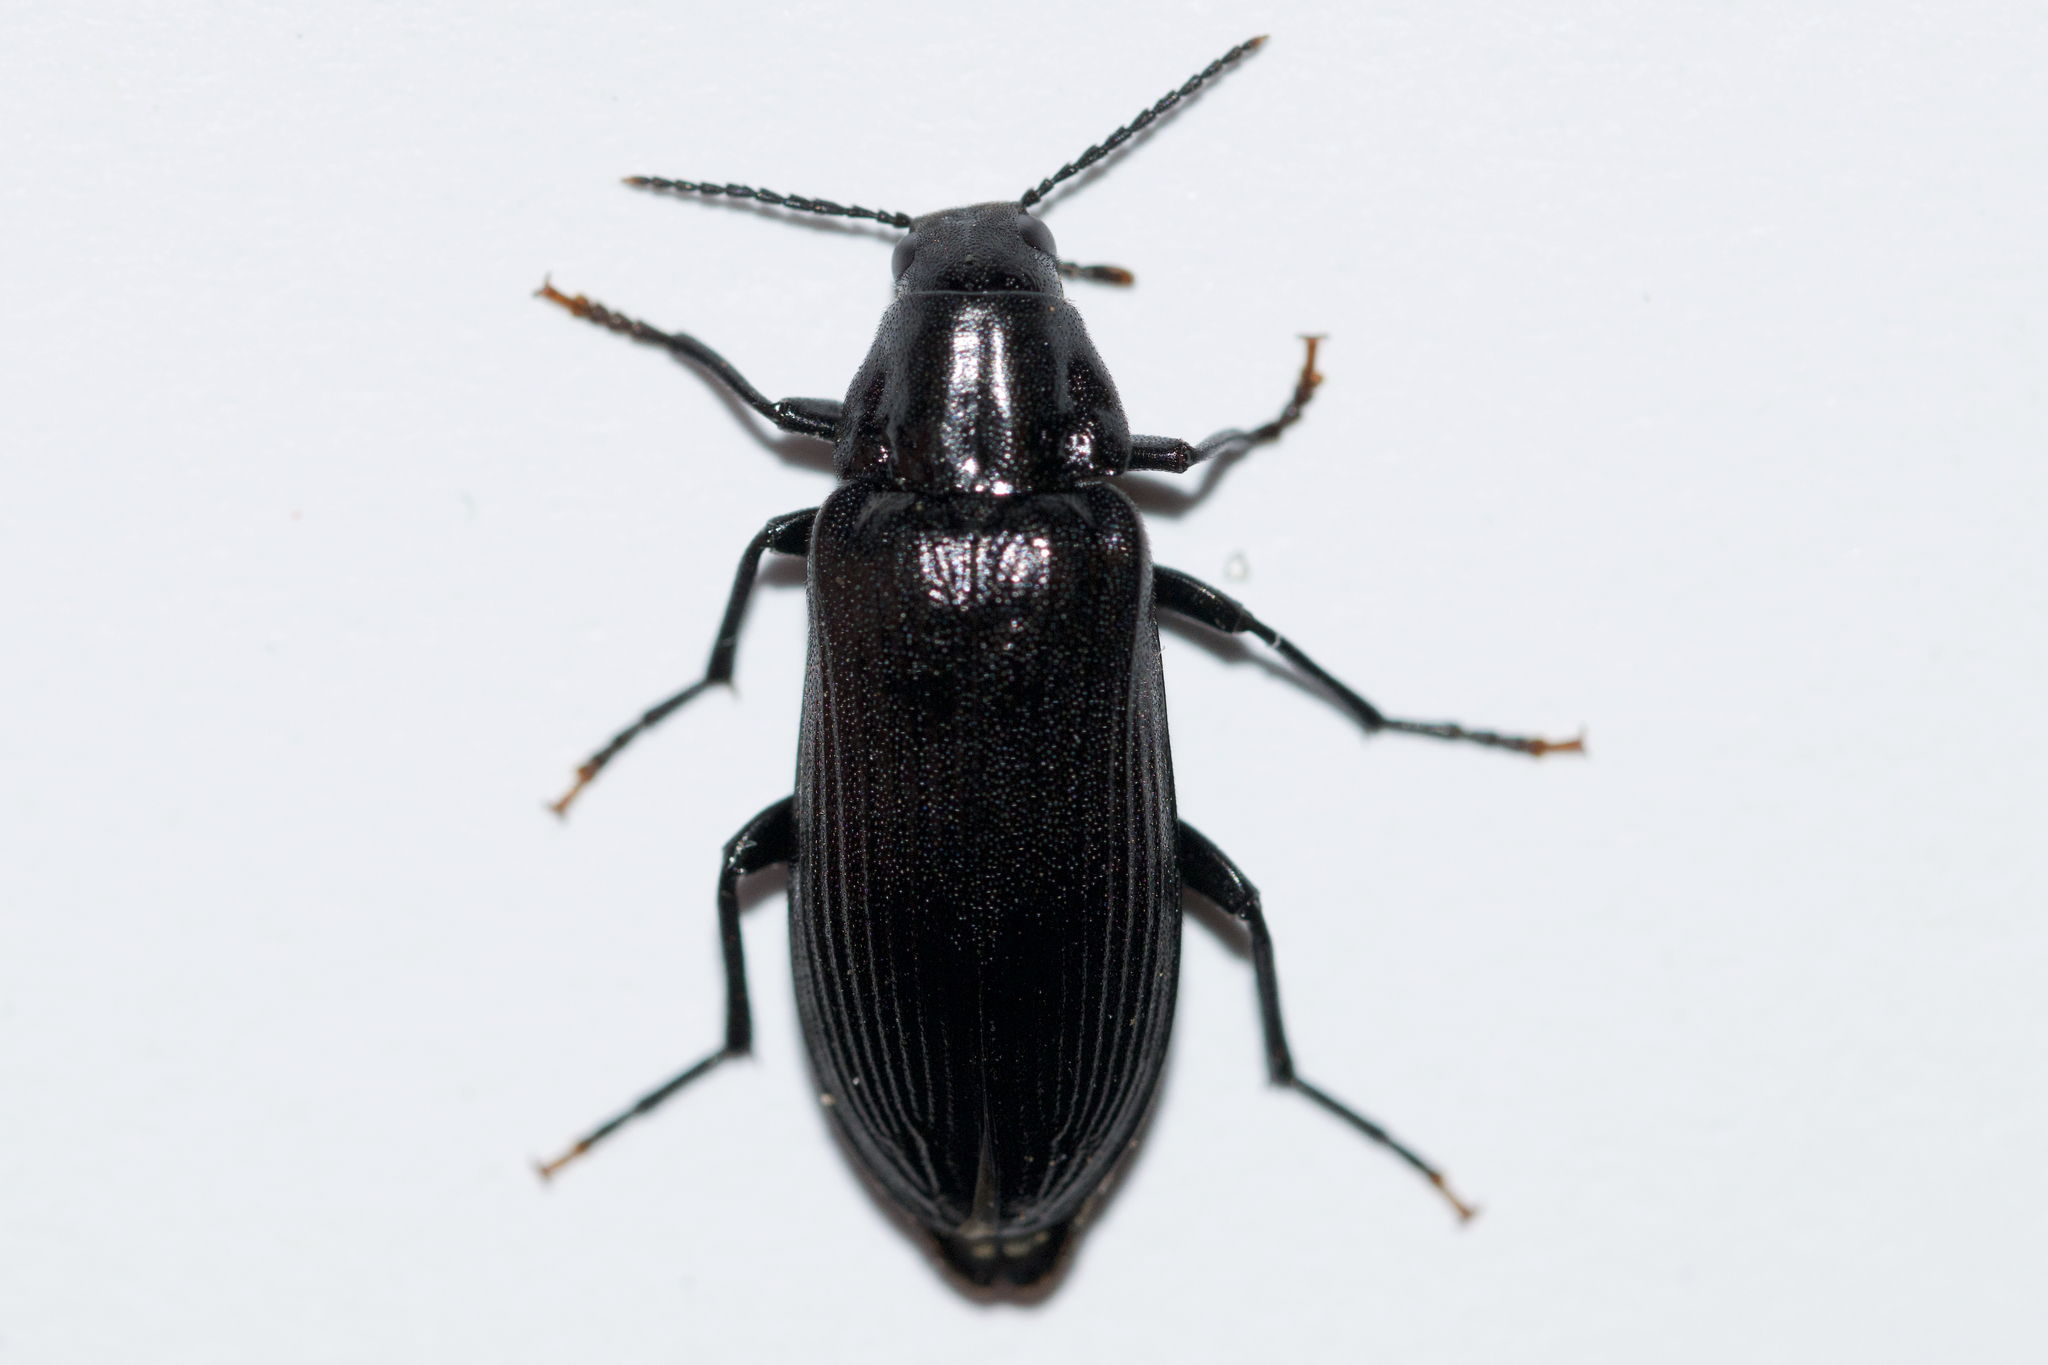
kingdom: Animalia
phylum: Arthropoda
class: Insecta
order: Coleoptera
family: Melandryidae
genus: Melandrya
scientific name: Melandrya striata
